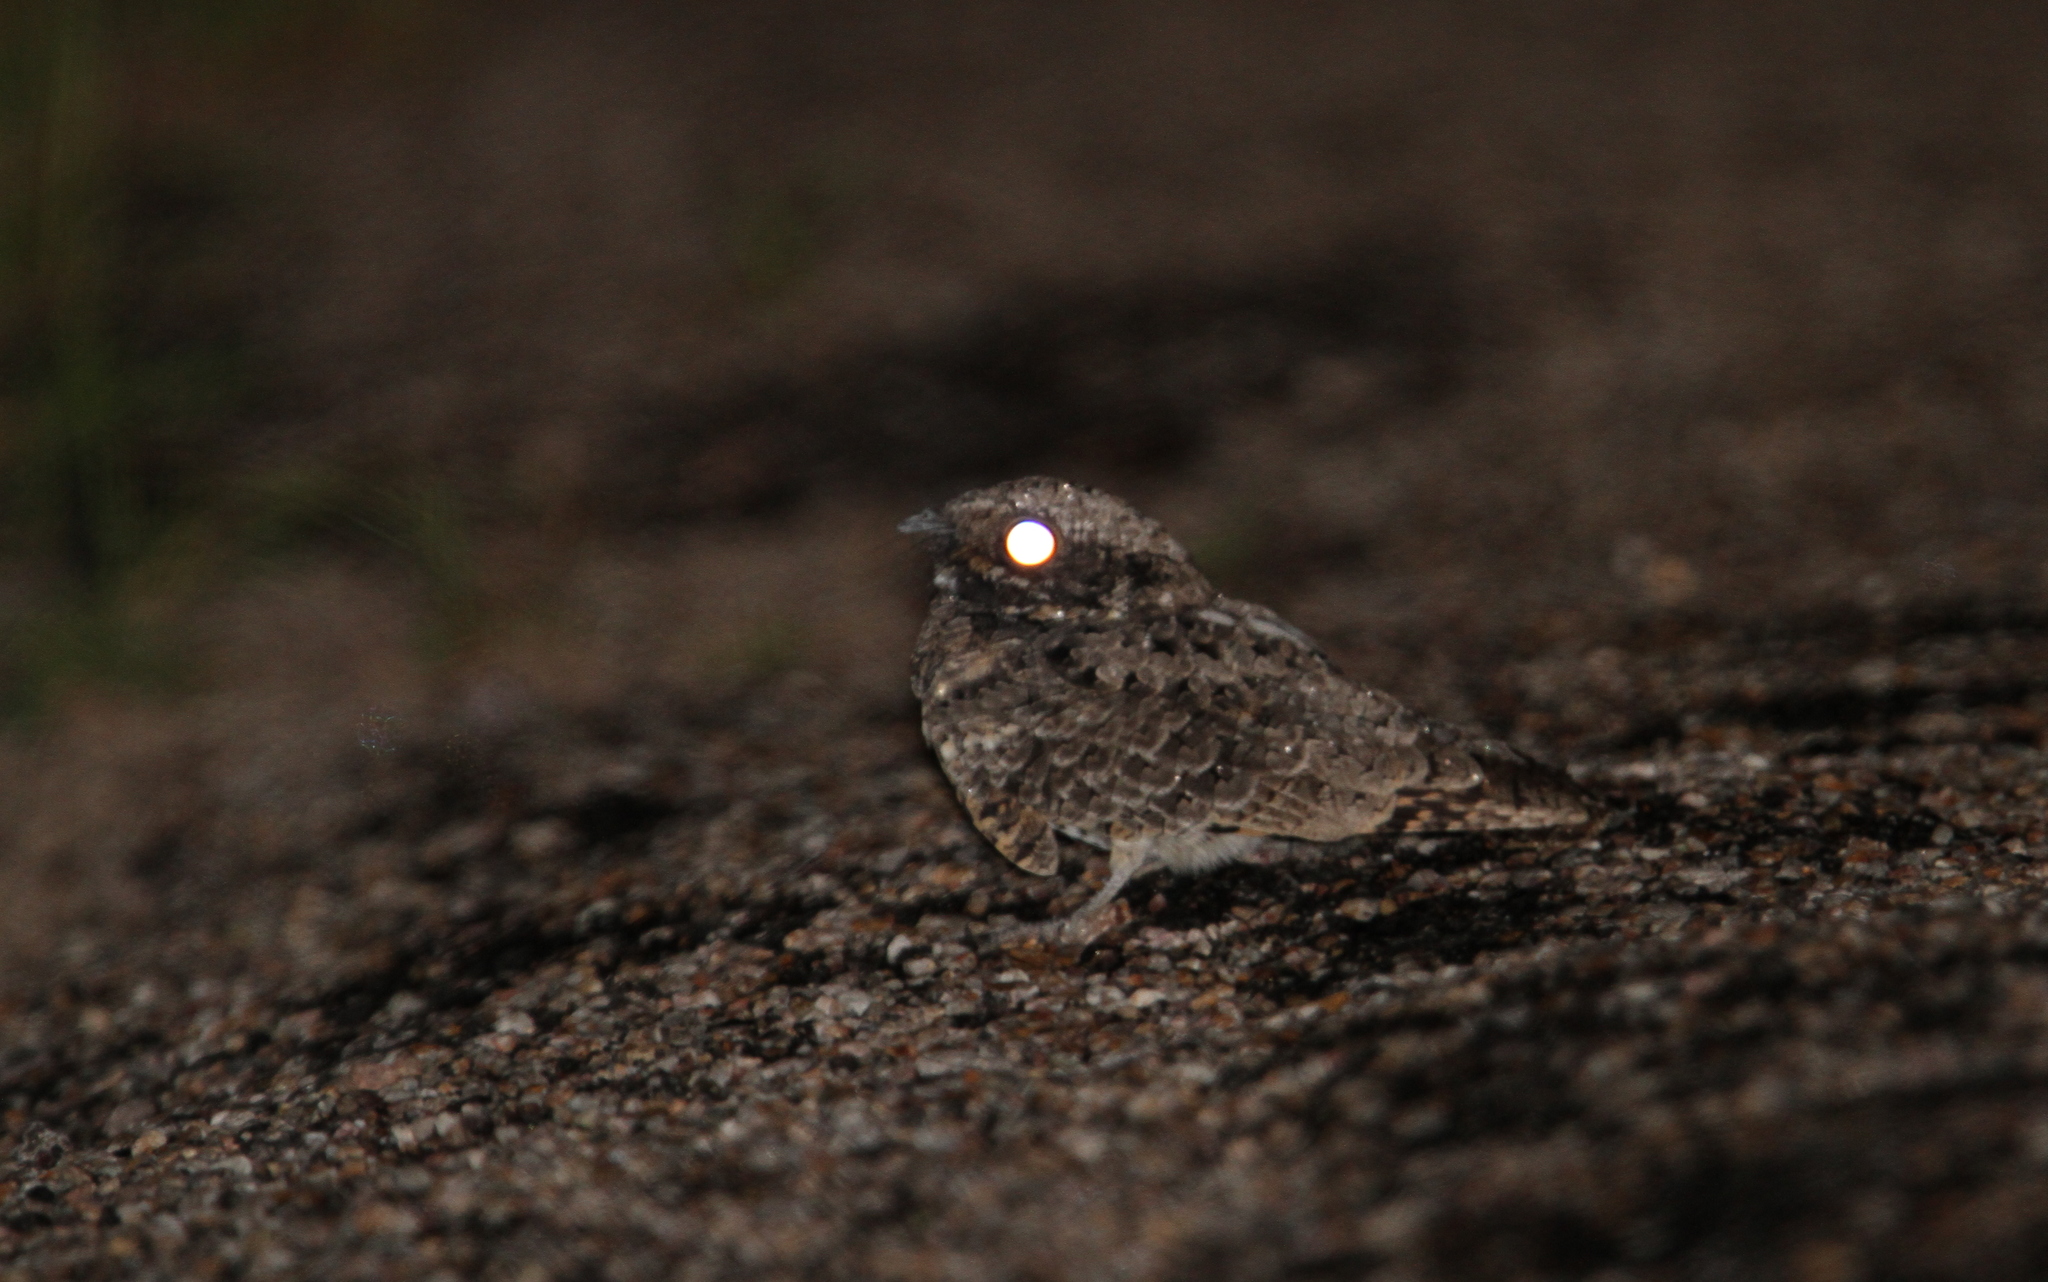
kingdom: Animalia
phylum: Chordata
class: Aves
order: Caprimulgiformes
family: Caprimulgidae
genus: Phalaenoptilus
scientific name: Phalaenoptilus nuttallii
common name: Common poorwill
